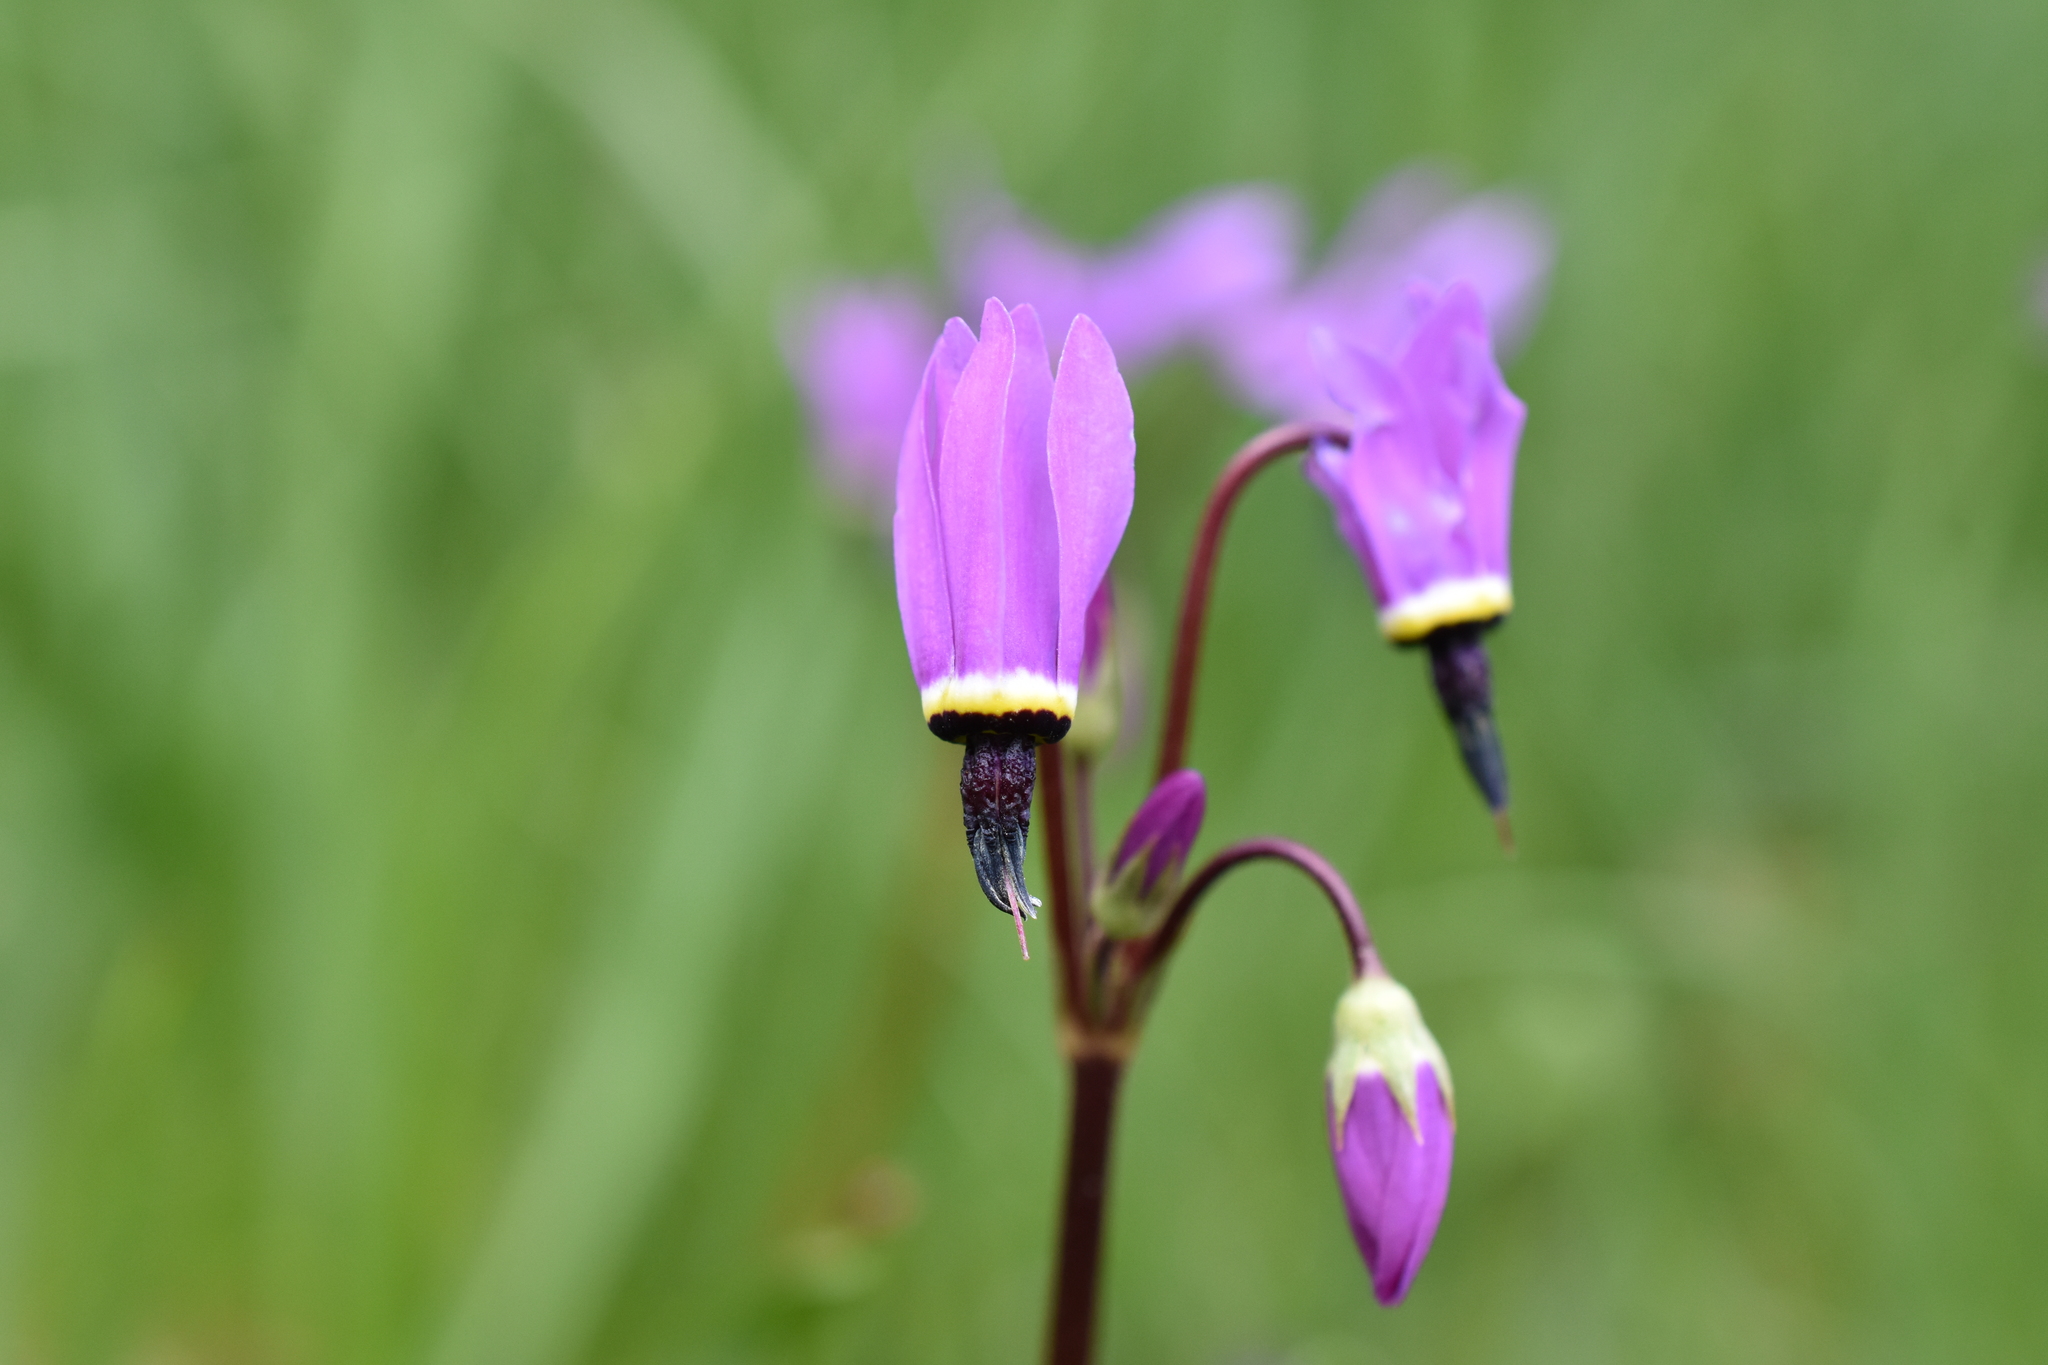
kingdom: Plantae
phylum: Tracheophyta
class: Magnoliopsida
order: Ericales
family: Primulaceae
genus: Dodecatheon
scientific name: Dodecatheon hendersonii
